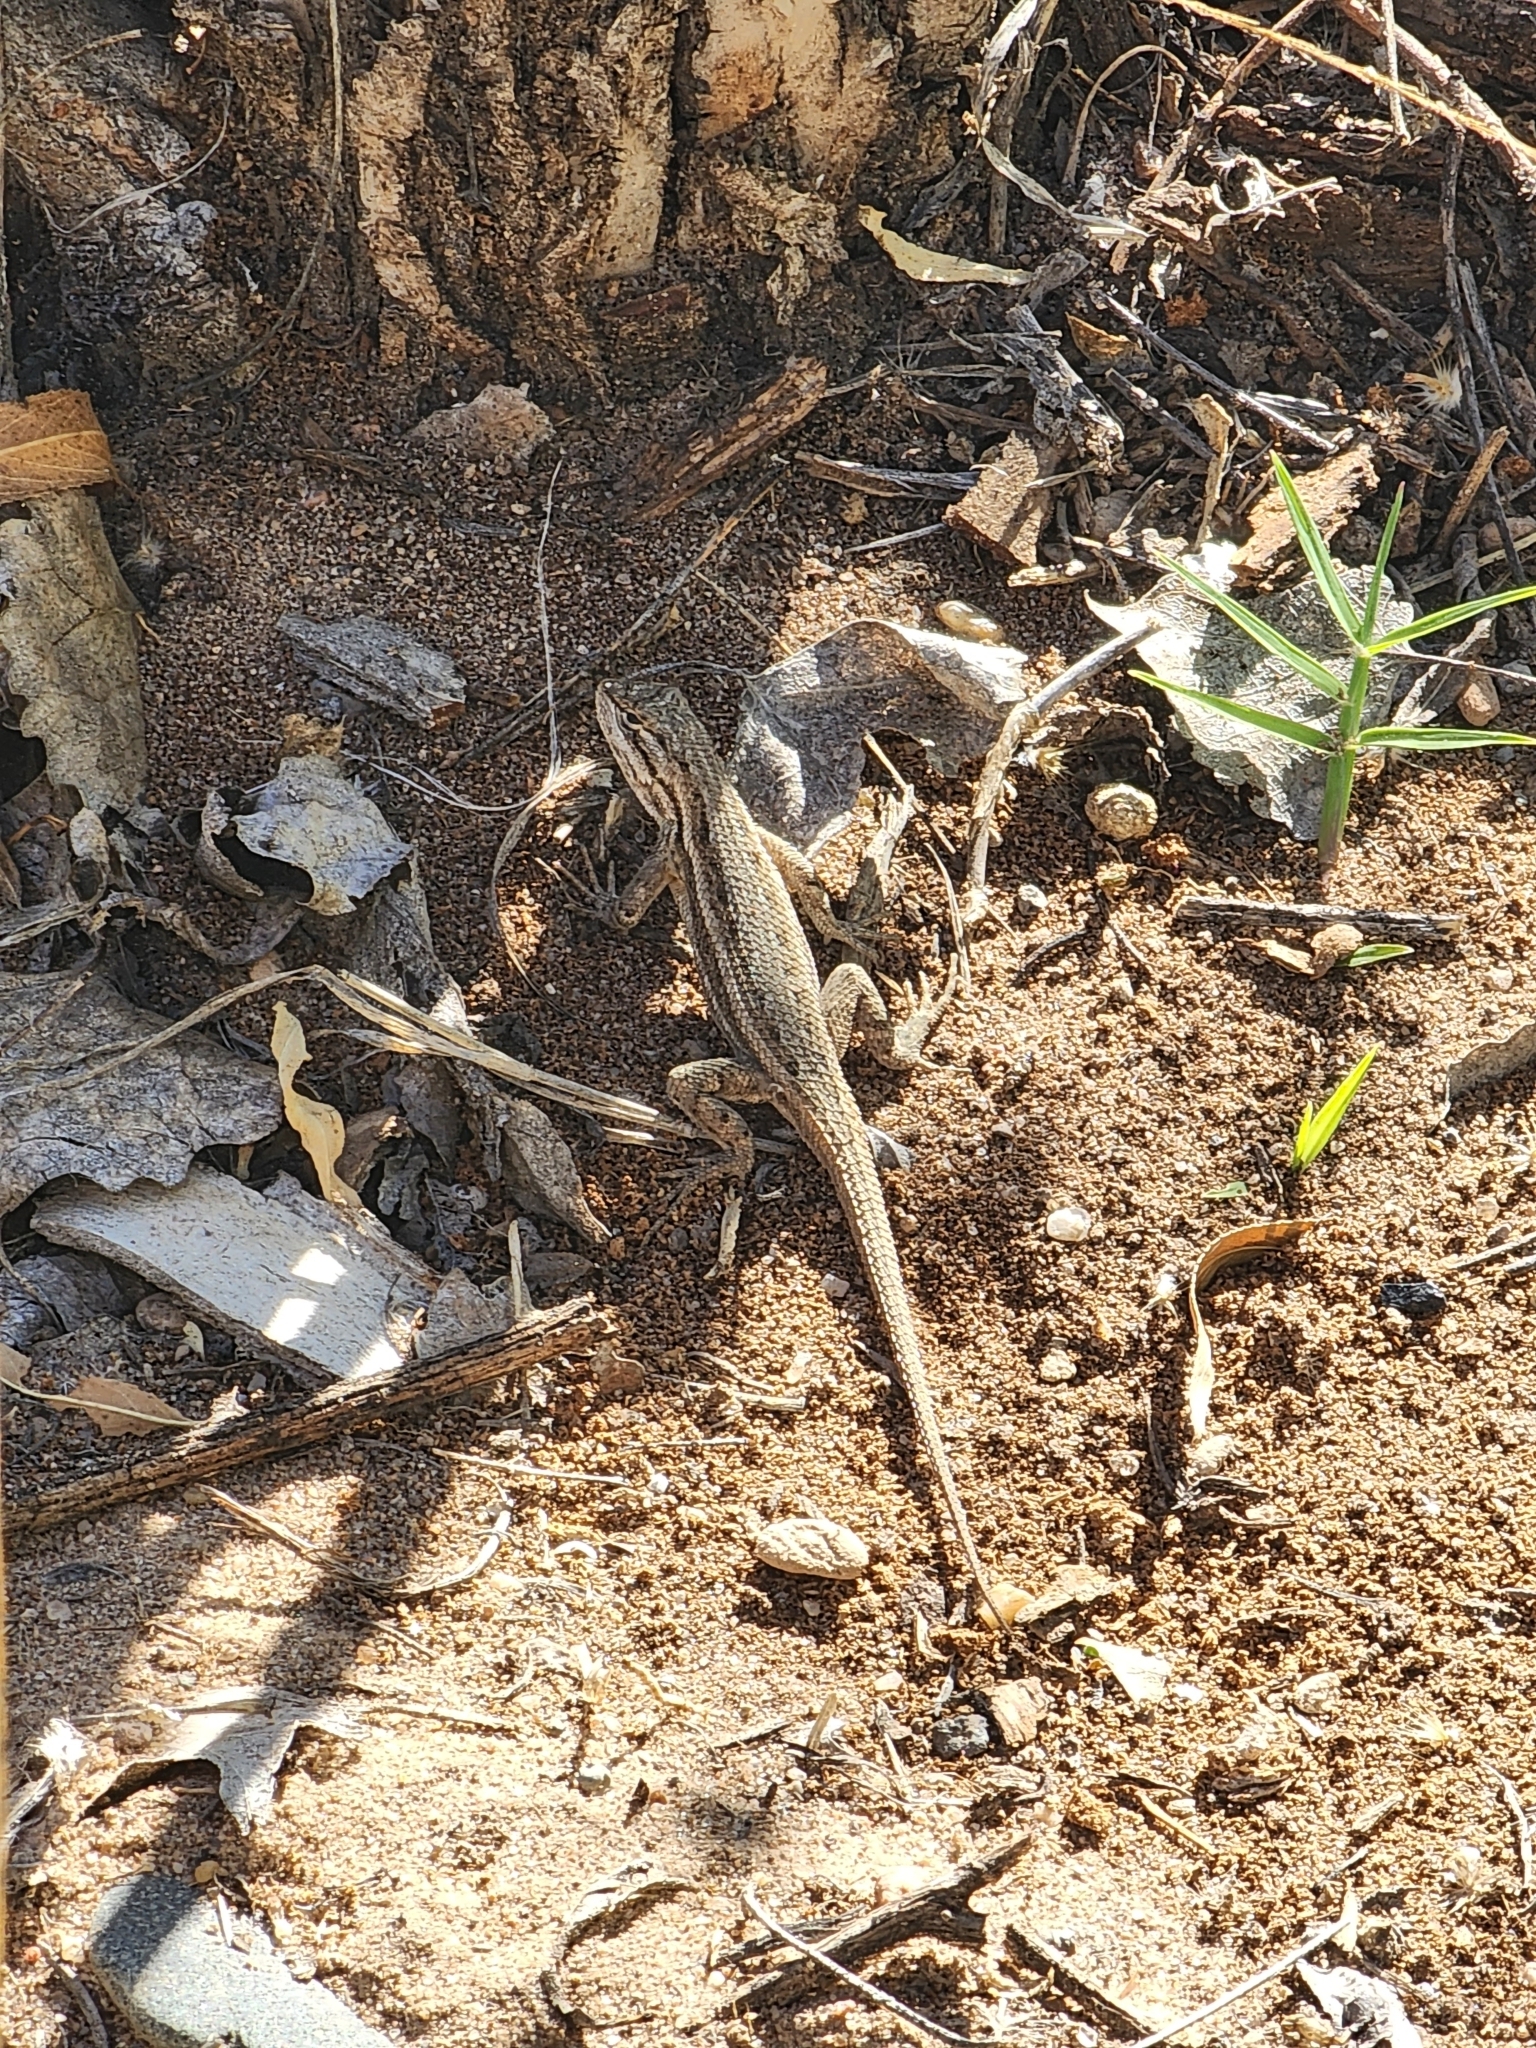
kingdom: Animalia
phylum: Chordata
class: Squamata
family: Phrynosomatidae
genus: Sceloporus
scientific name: Sceloporus cowlesi
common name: White sands prairie lizard
